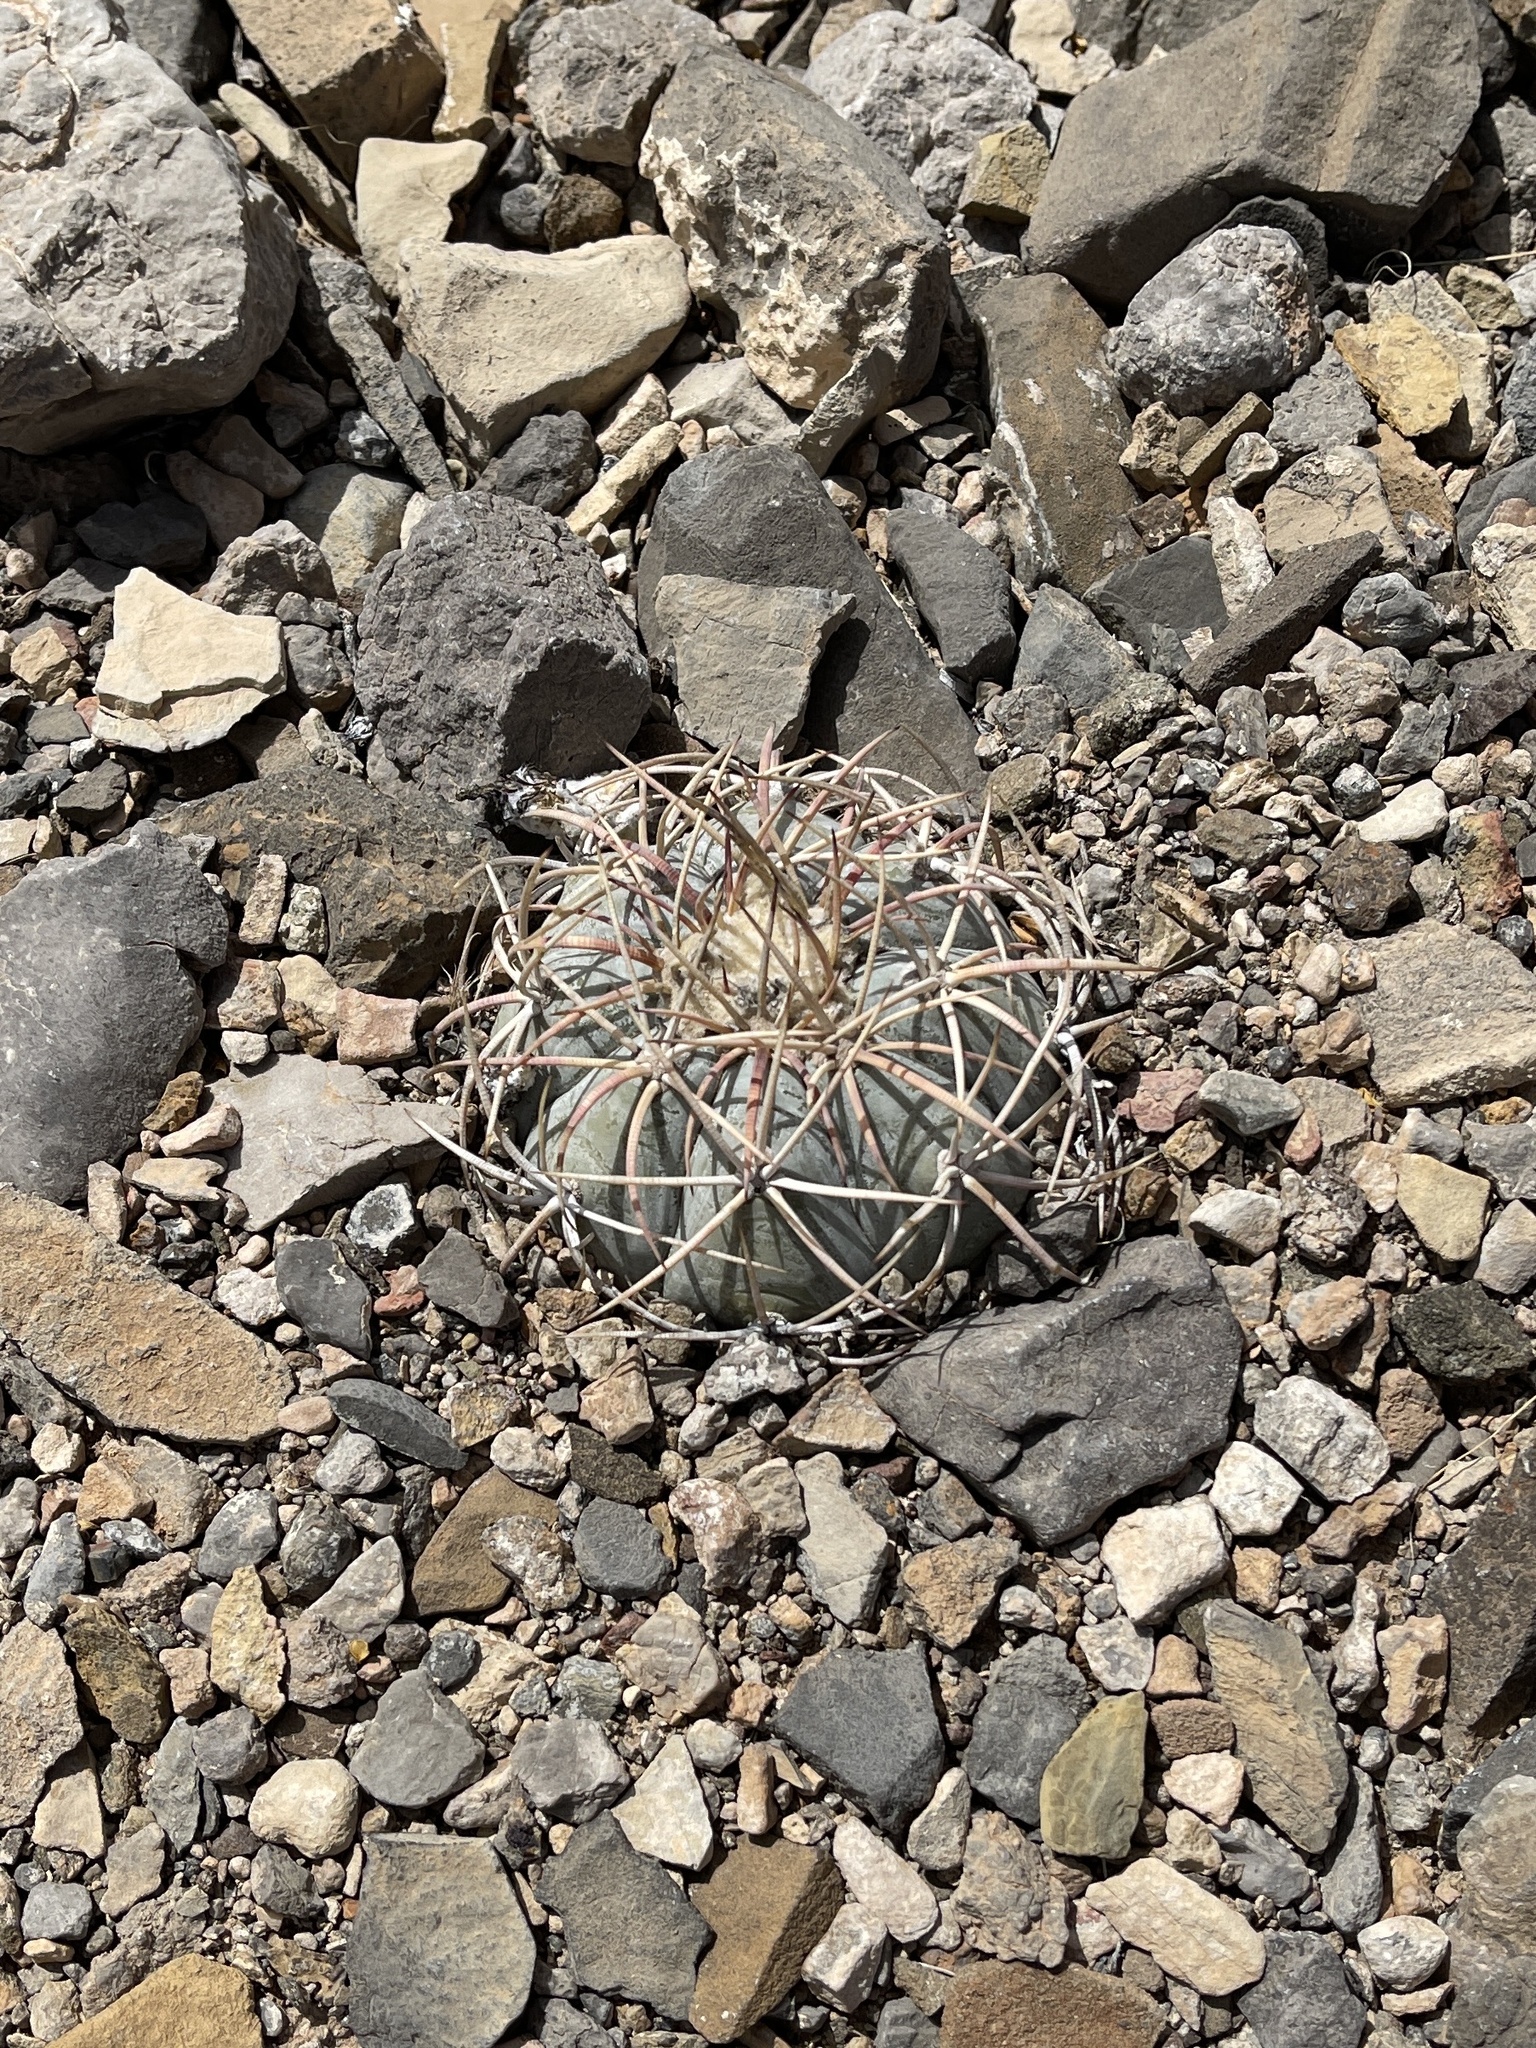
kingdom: Plantae
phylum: Tracheophyta
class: Magnoliopsida
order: Caryophyllales
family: Cactaceae
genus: Echinocactus
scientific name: Echinocactus horizonthalonius
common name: Devilshead
